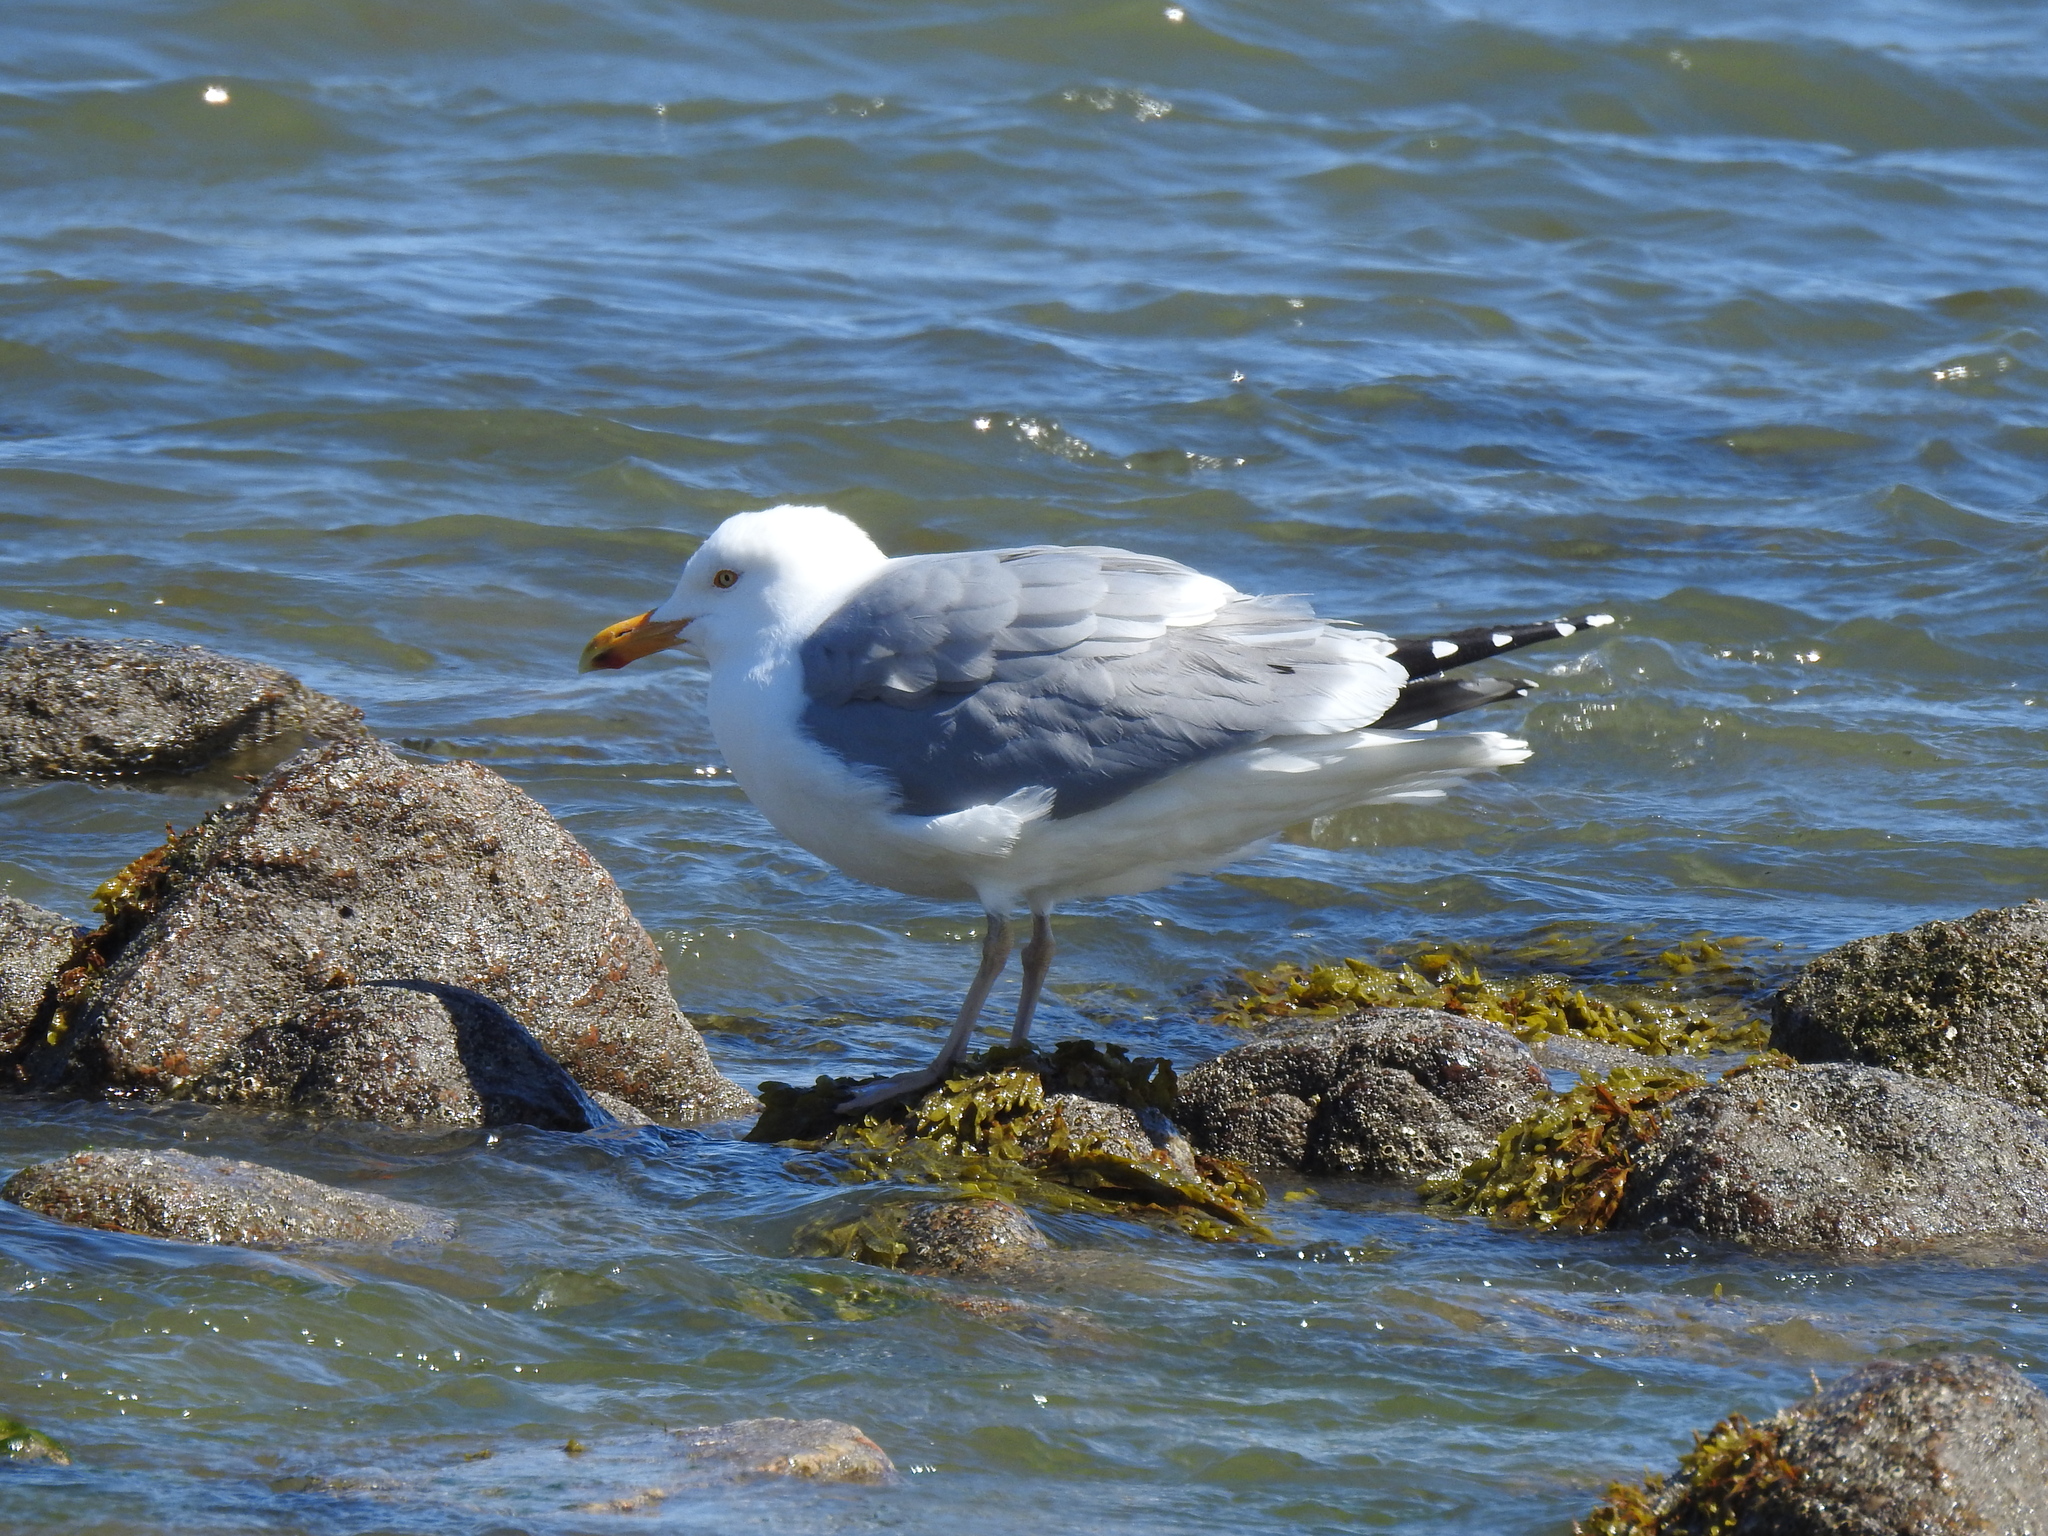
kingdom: Animalia
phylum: Chordata
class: Aves
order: Charadriiformes
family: Laridae
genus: Larus
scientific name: Larus argentatus
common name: Herring gull
